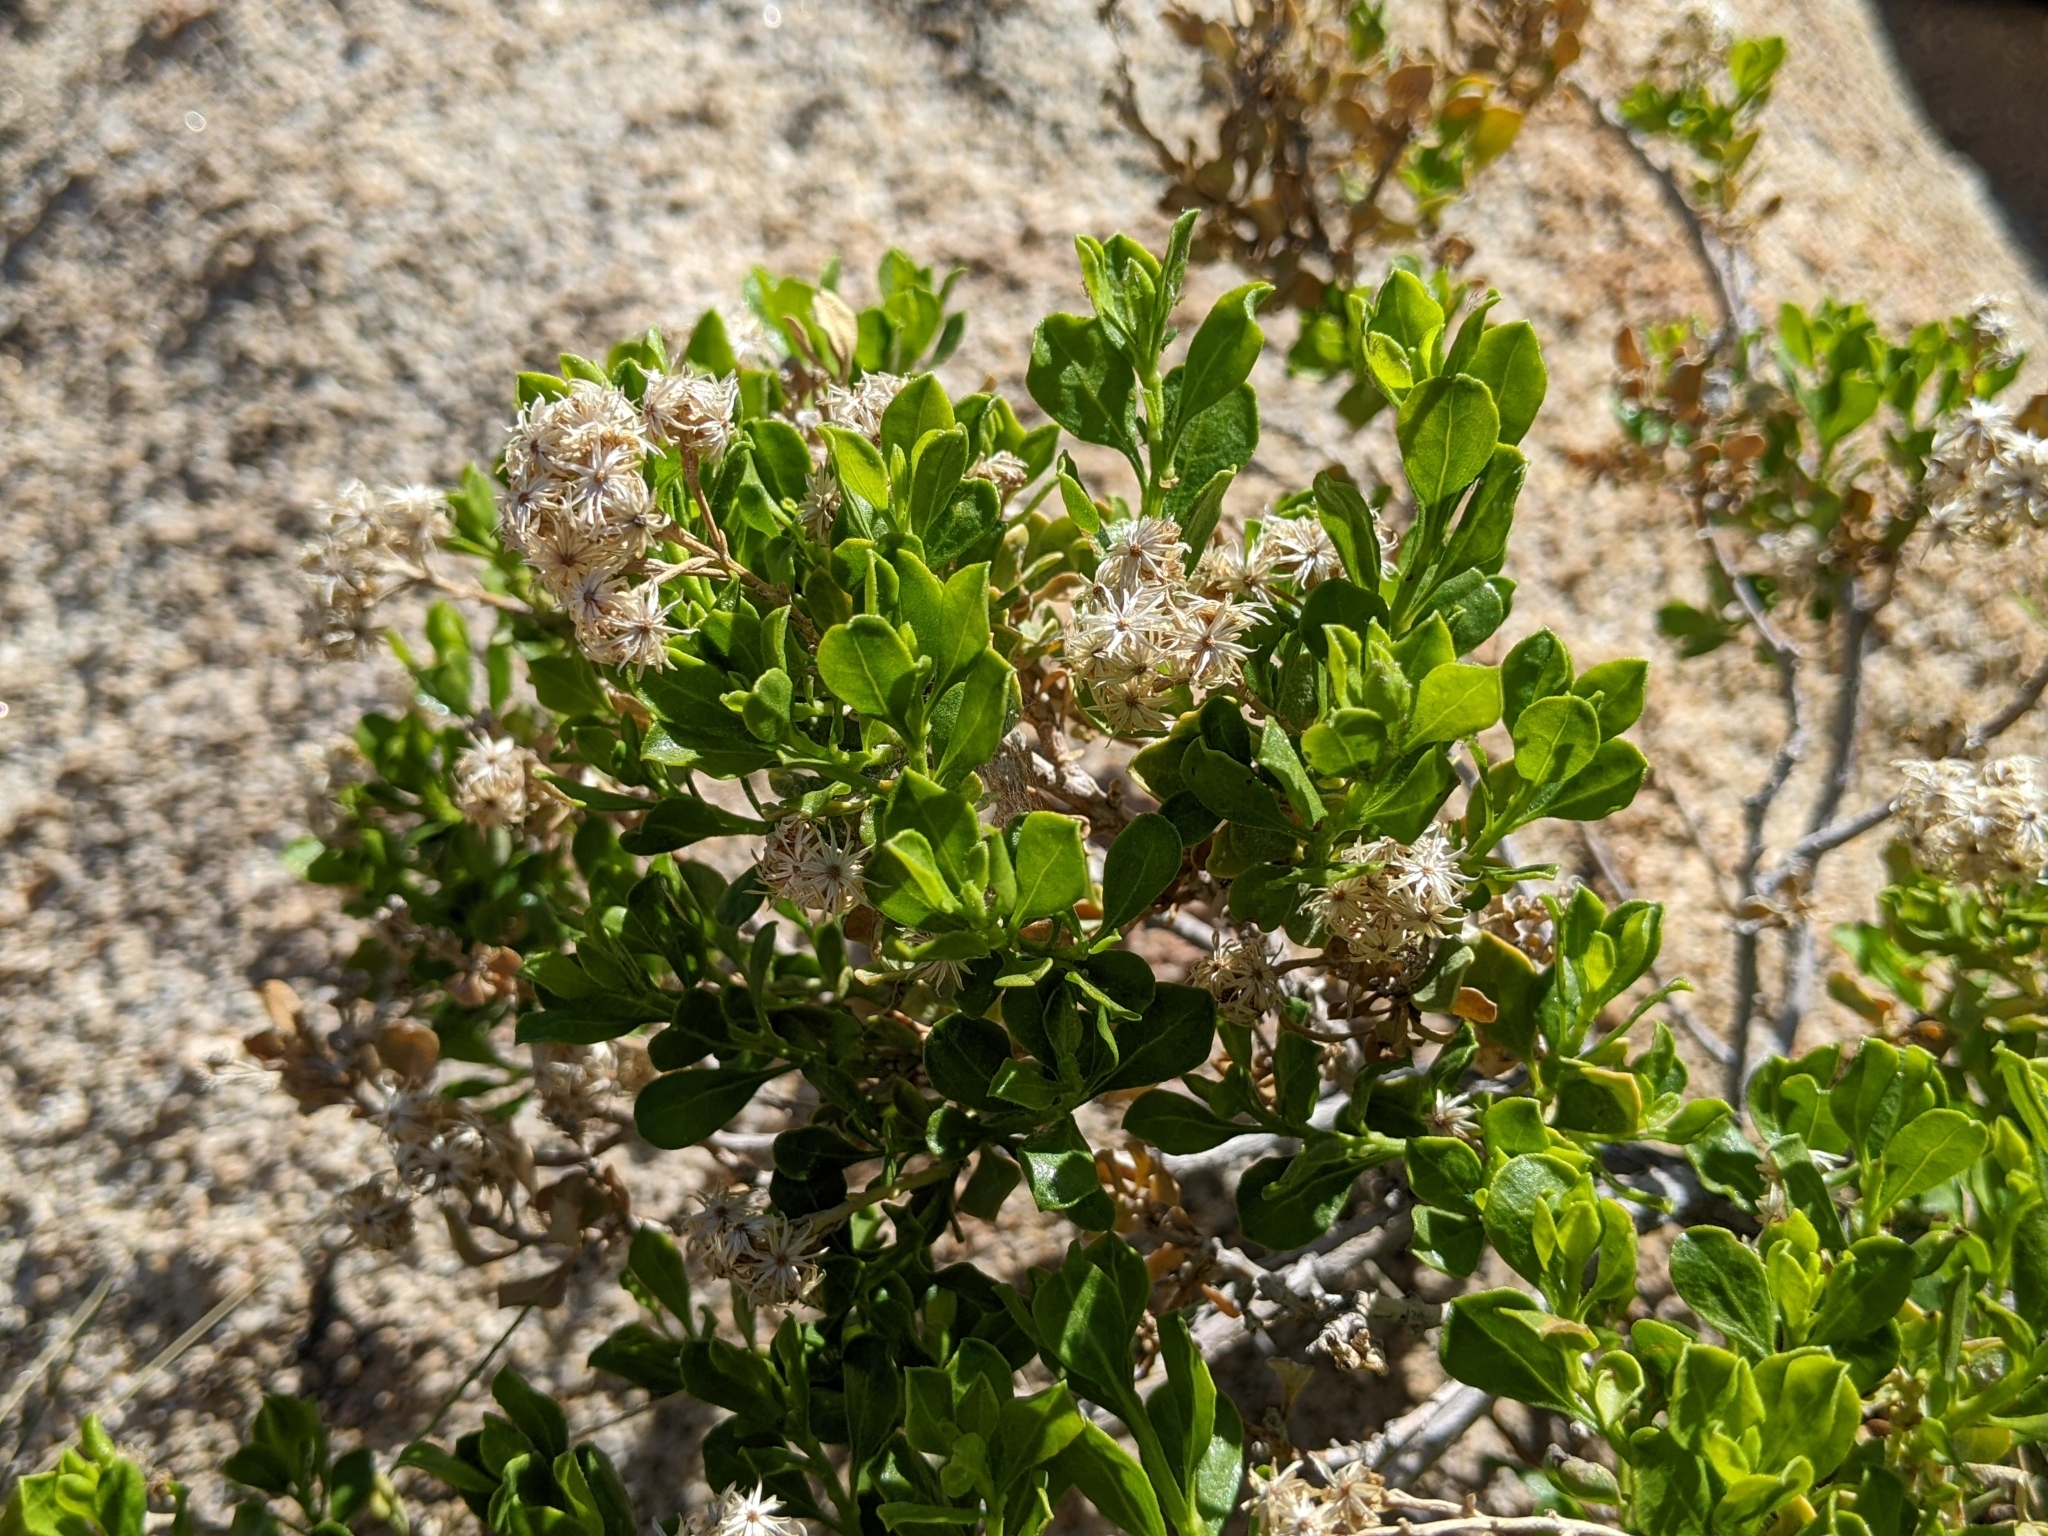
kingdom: Plantae
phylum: Tracheophyta
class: Magnoliopsida
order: Asterales
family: Asteraceae
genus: Ericameria
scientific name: Ericameria cuneata
